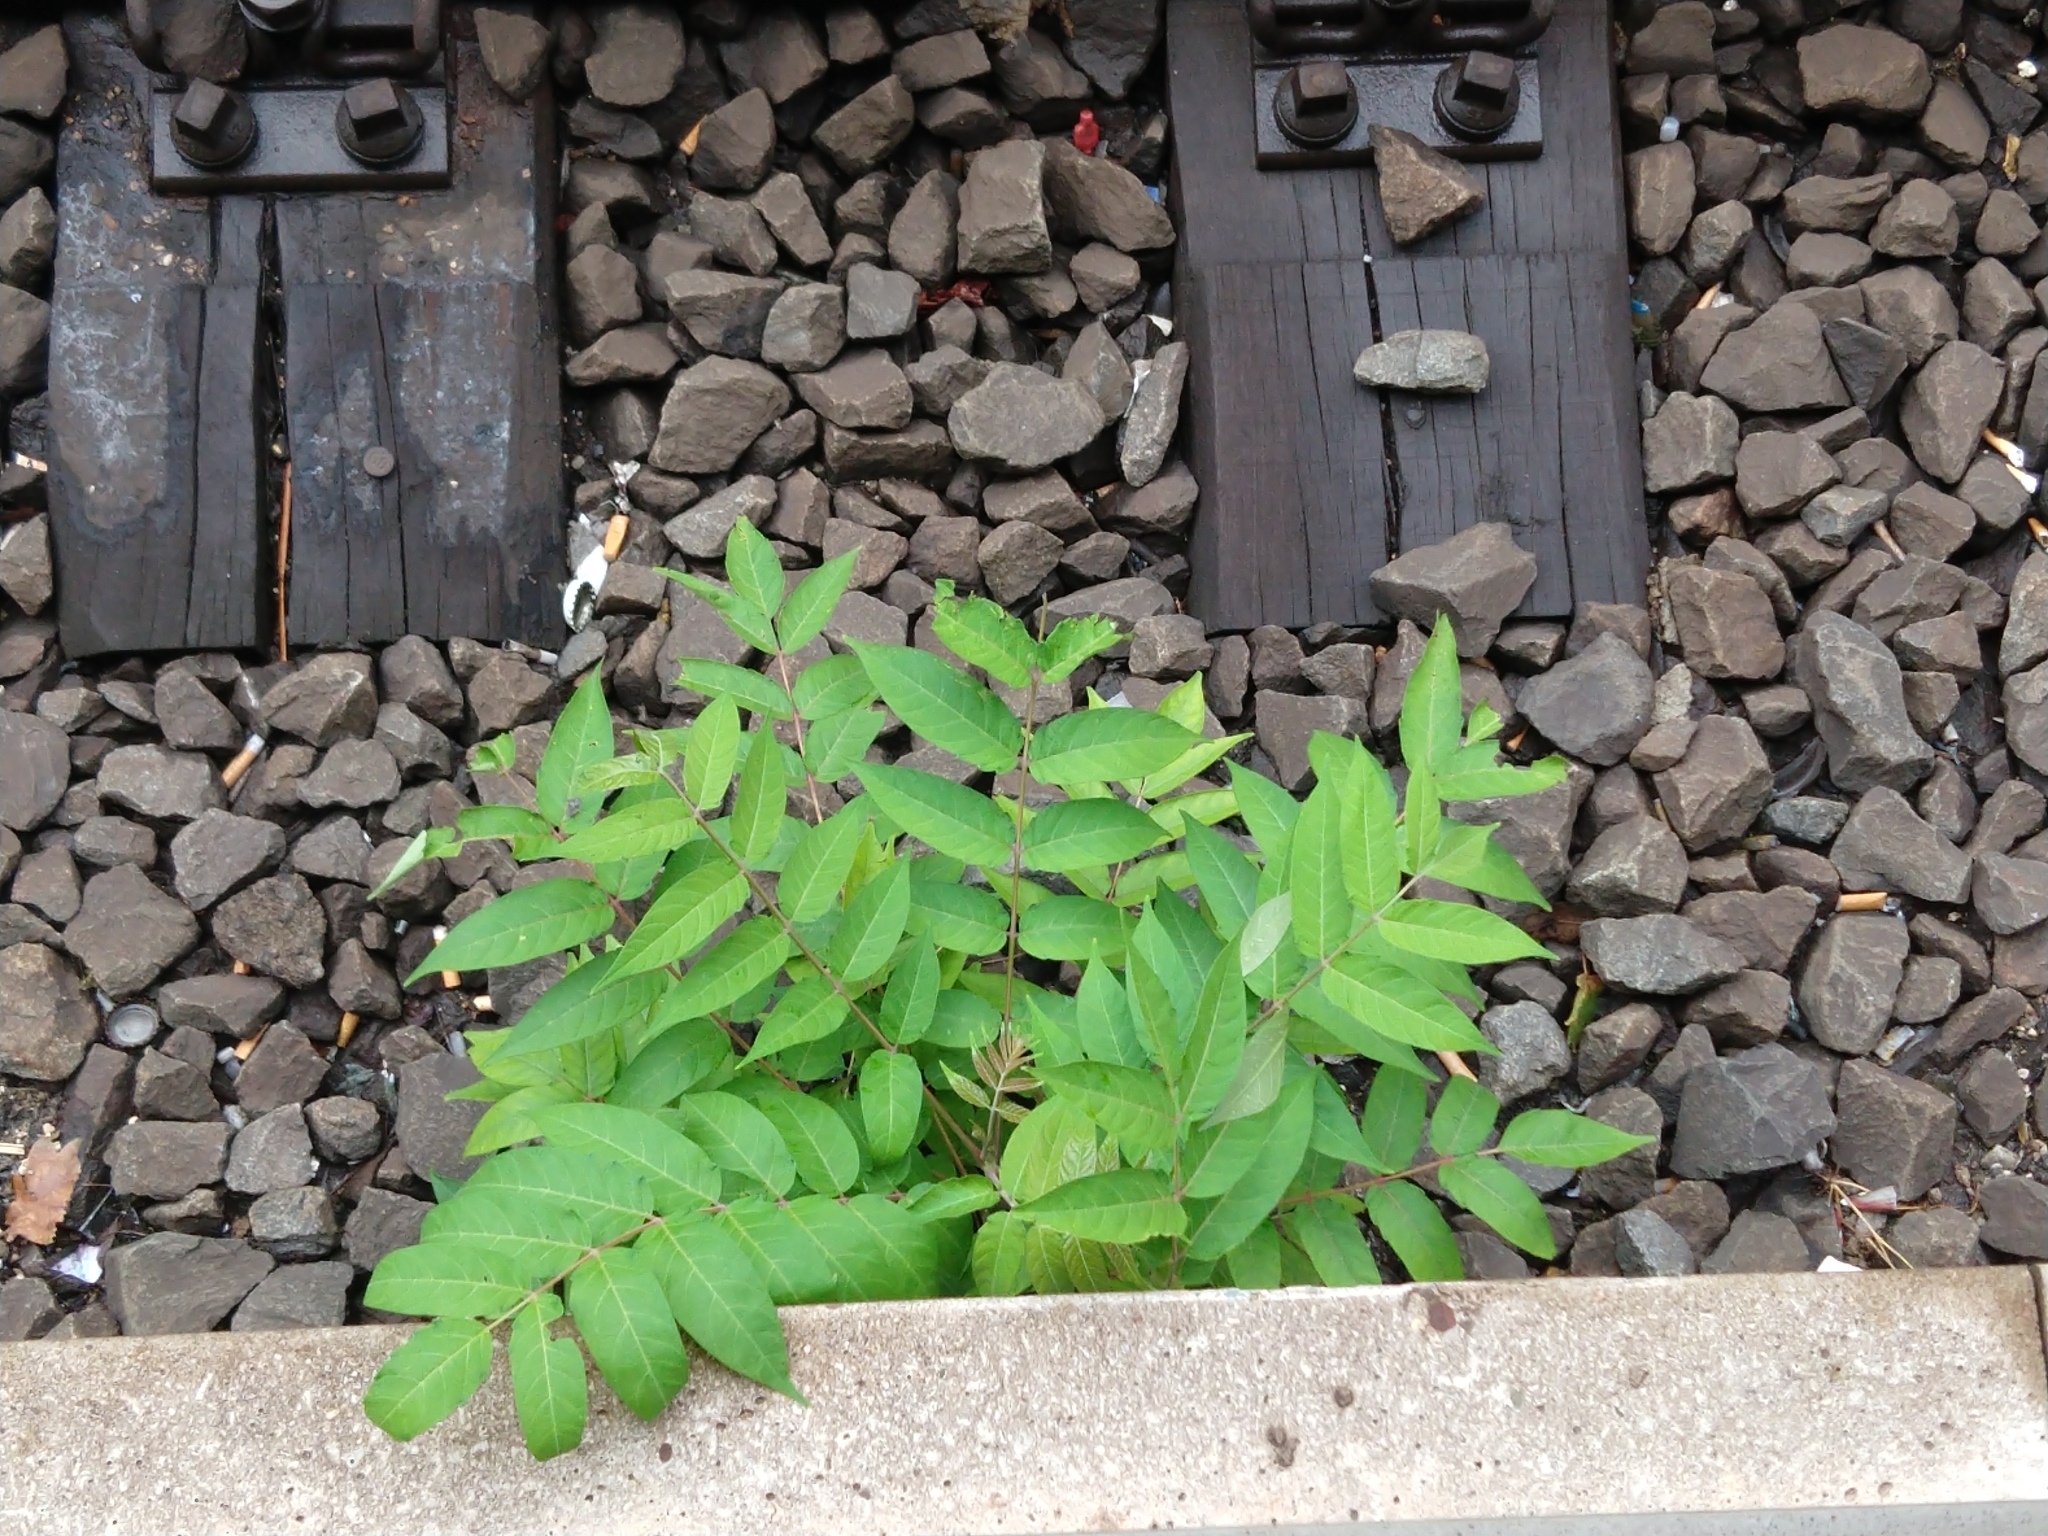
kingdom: Plantae
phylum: Tracheophyta
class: Magnoliopsida
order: Sapindales
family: Simaroubaceae
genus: Ailanthus
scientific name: Ailanthus altissima
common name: Tree-of-heaven
